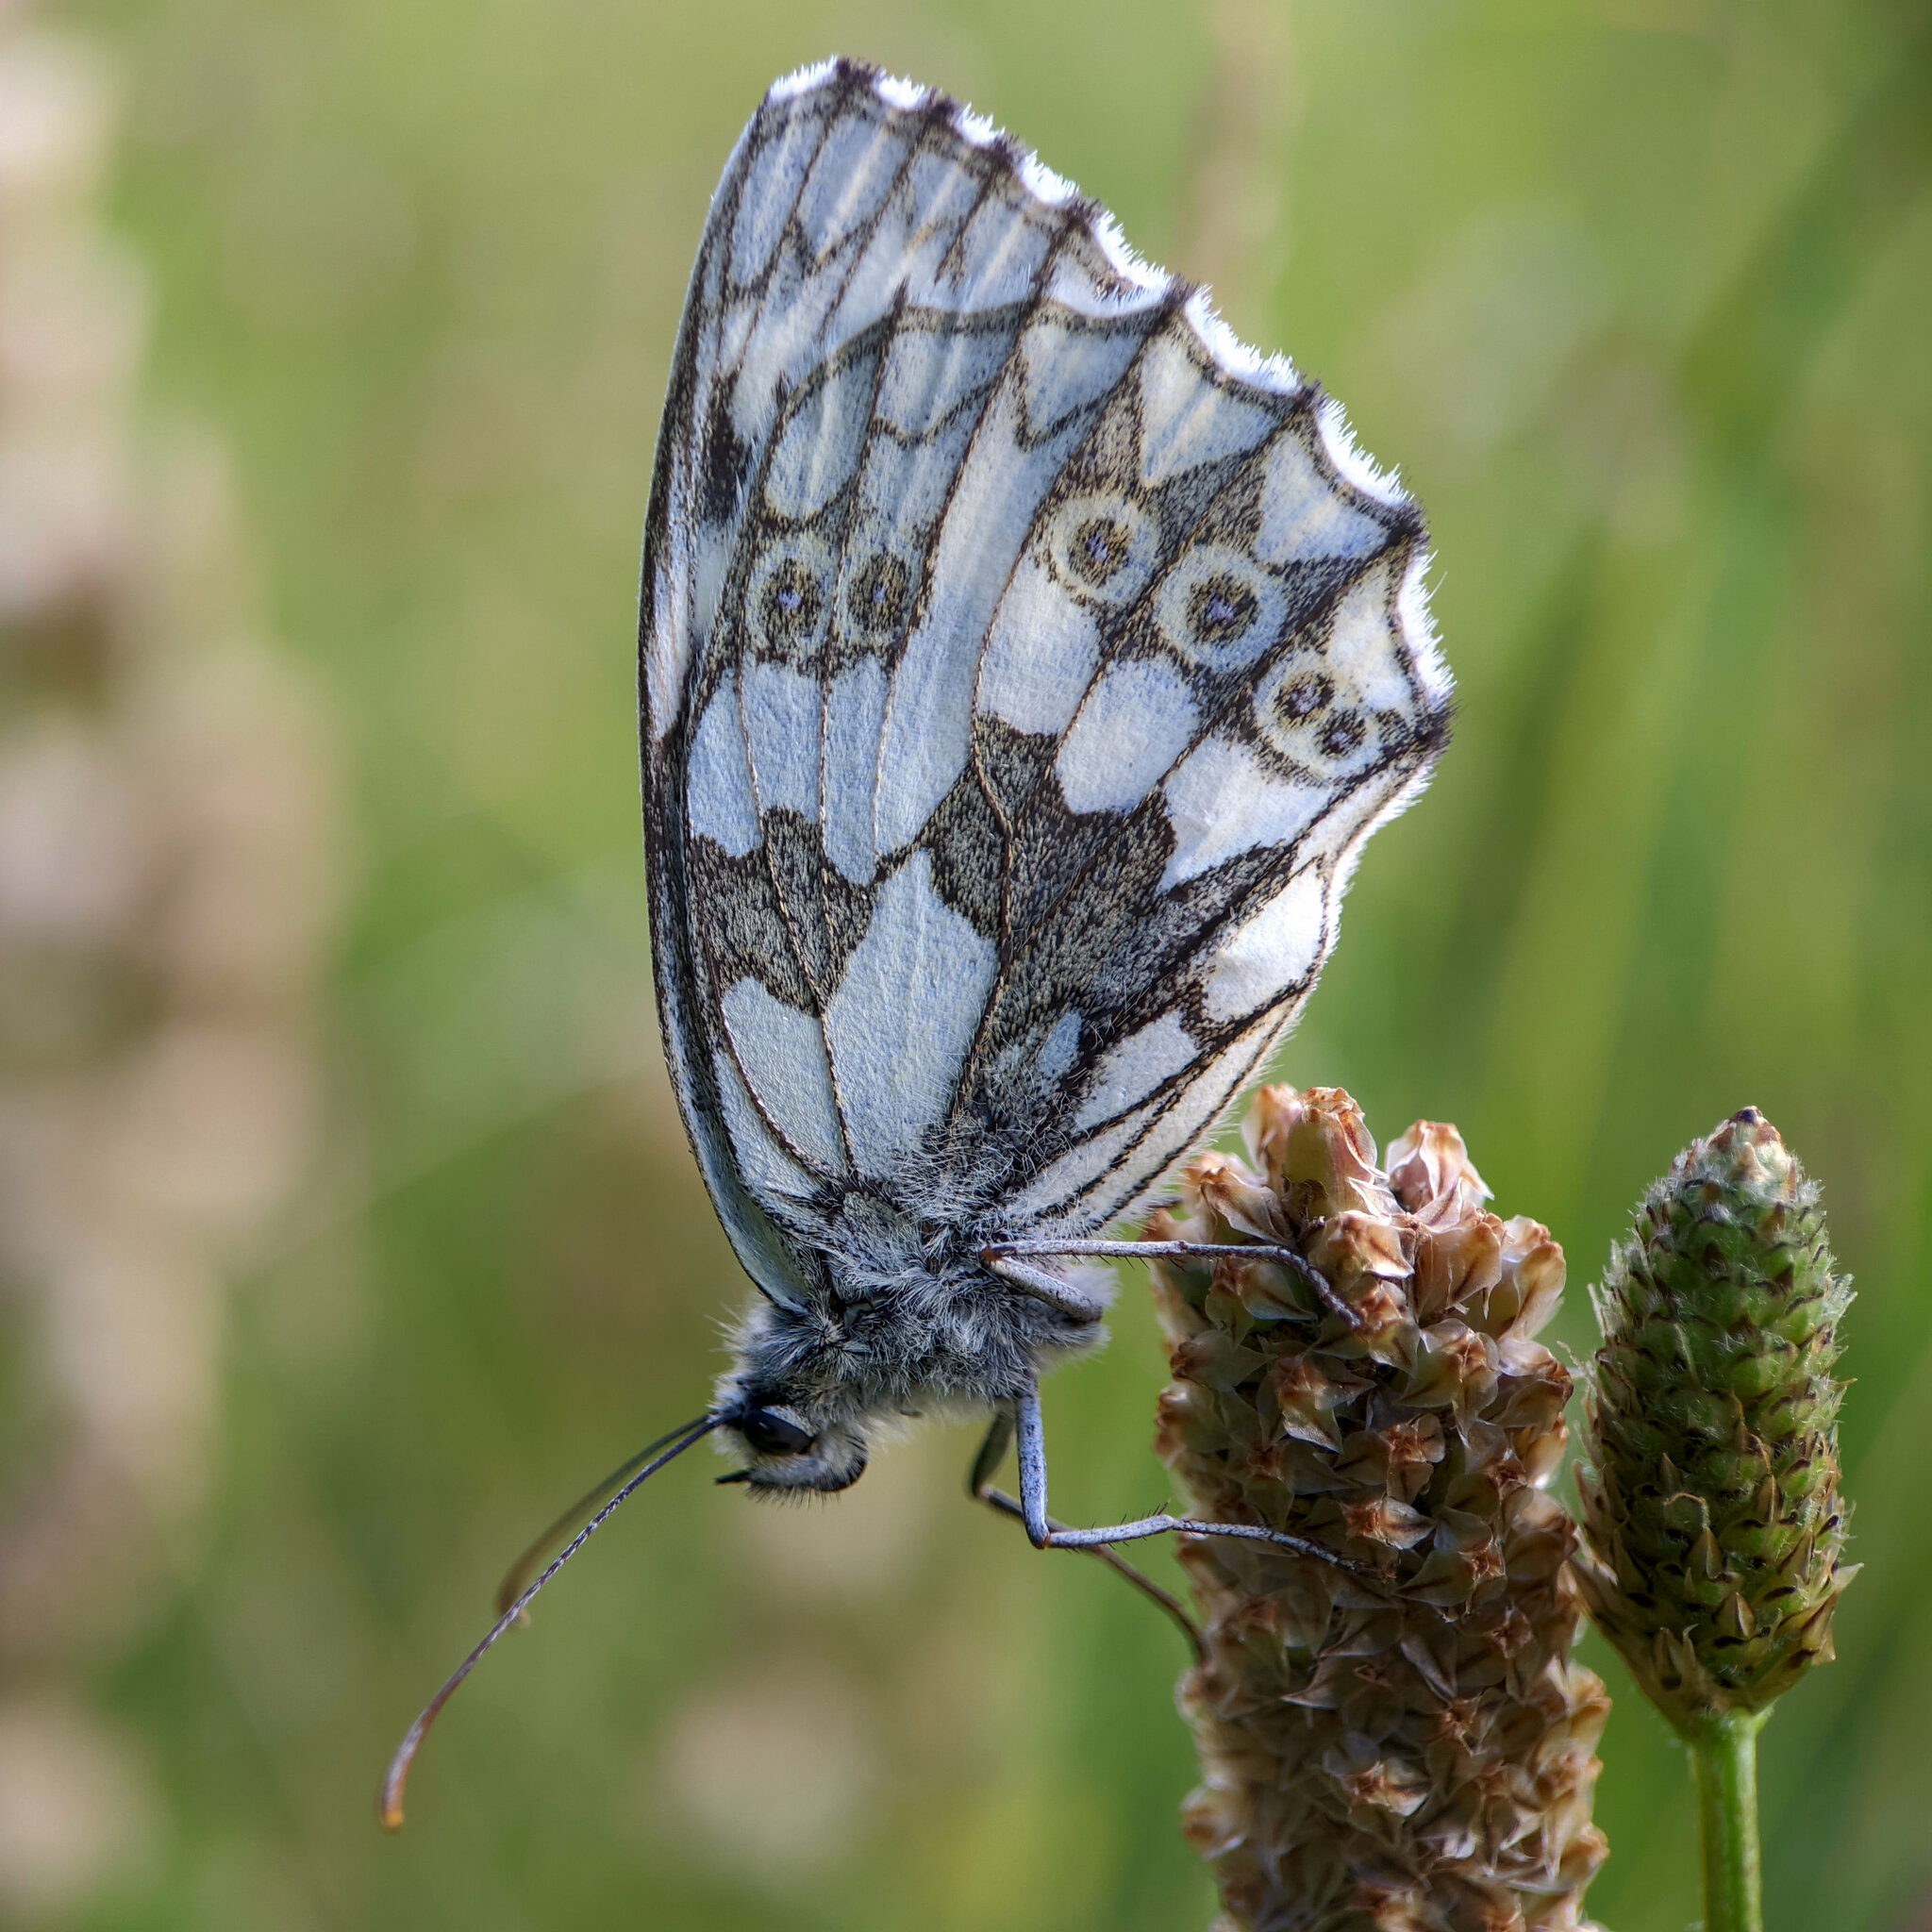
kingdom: Animalia
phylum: Arthropoda
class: Insecta
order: Lepidoptera
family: Nymphalidae
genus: Melanargia
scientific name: Melanargia galathea
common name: Marbled white
